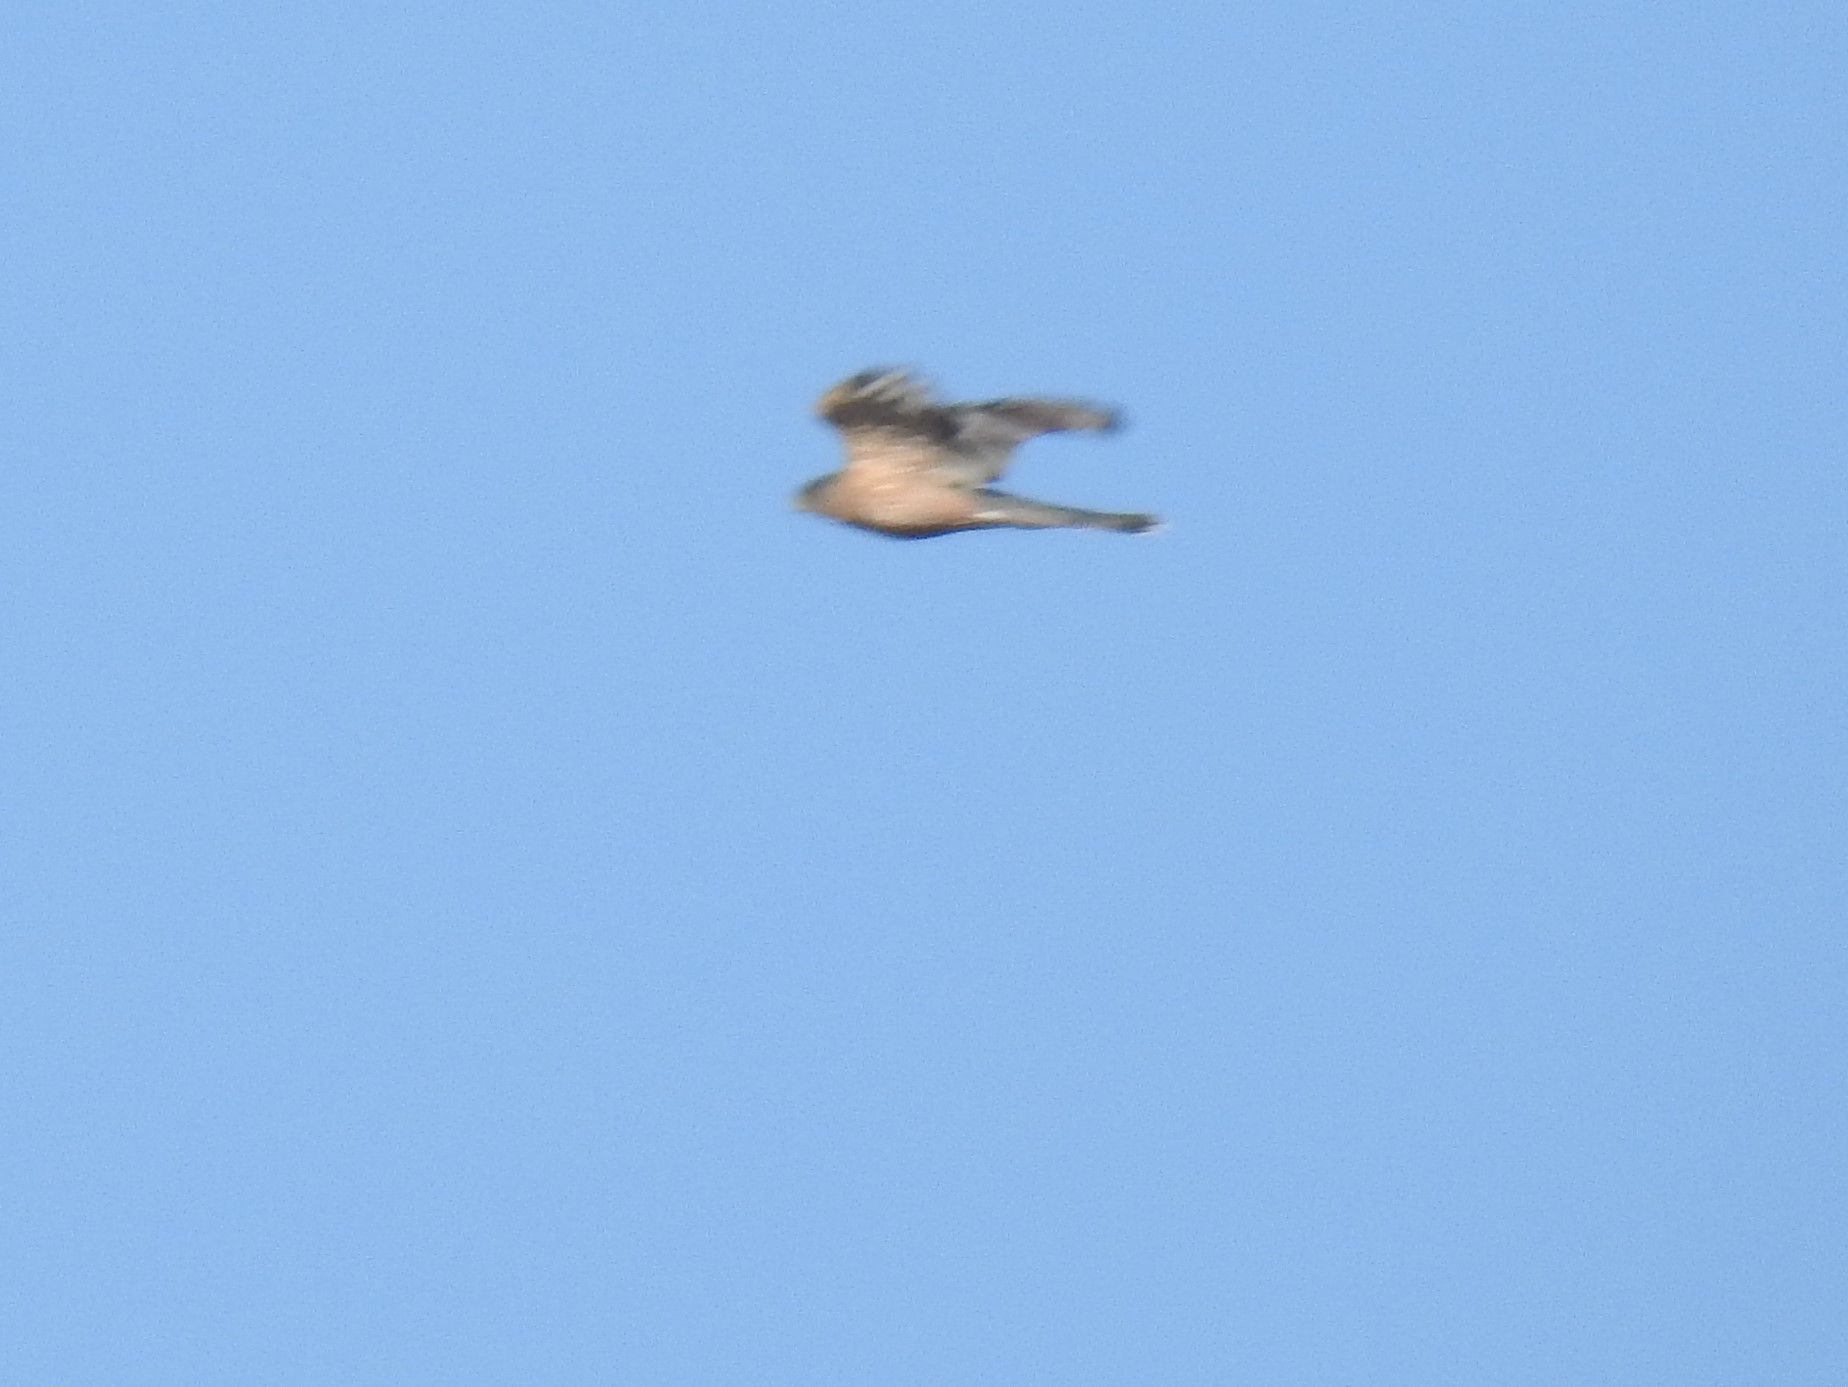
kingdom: Animalia
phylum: Chordata
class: Aves
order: Accipitriformes
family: Accipitridae
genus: Accipiter
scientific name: Accipiter striatus
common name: Sharp-shinned hawk
